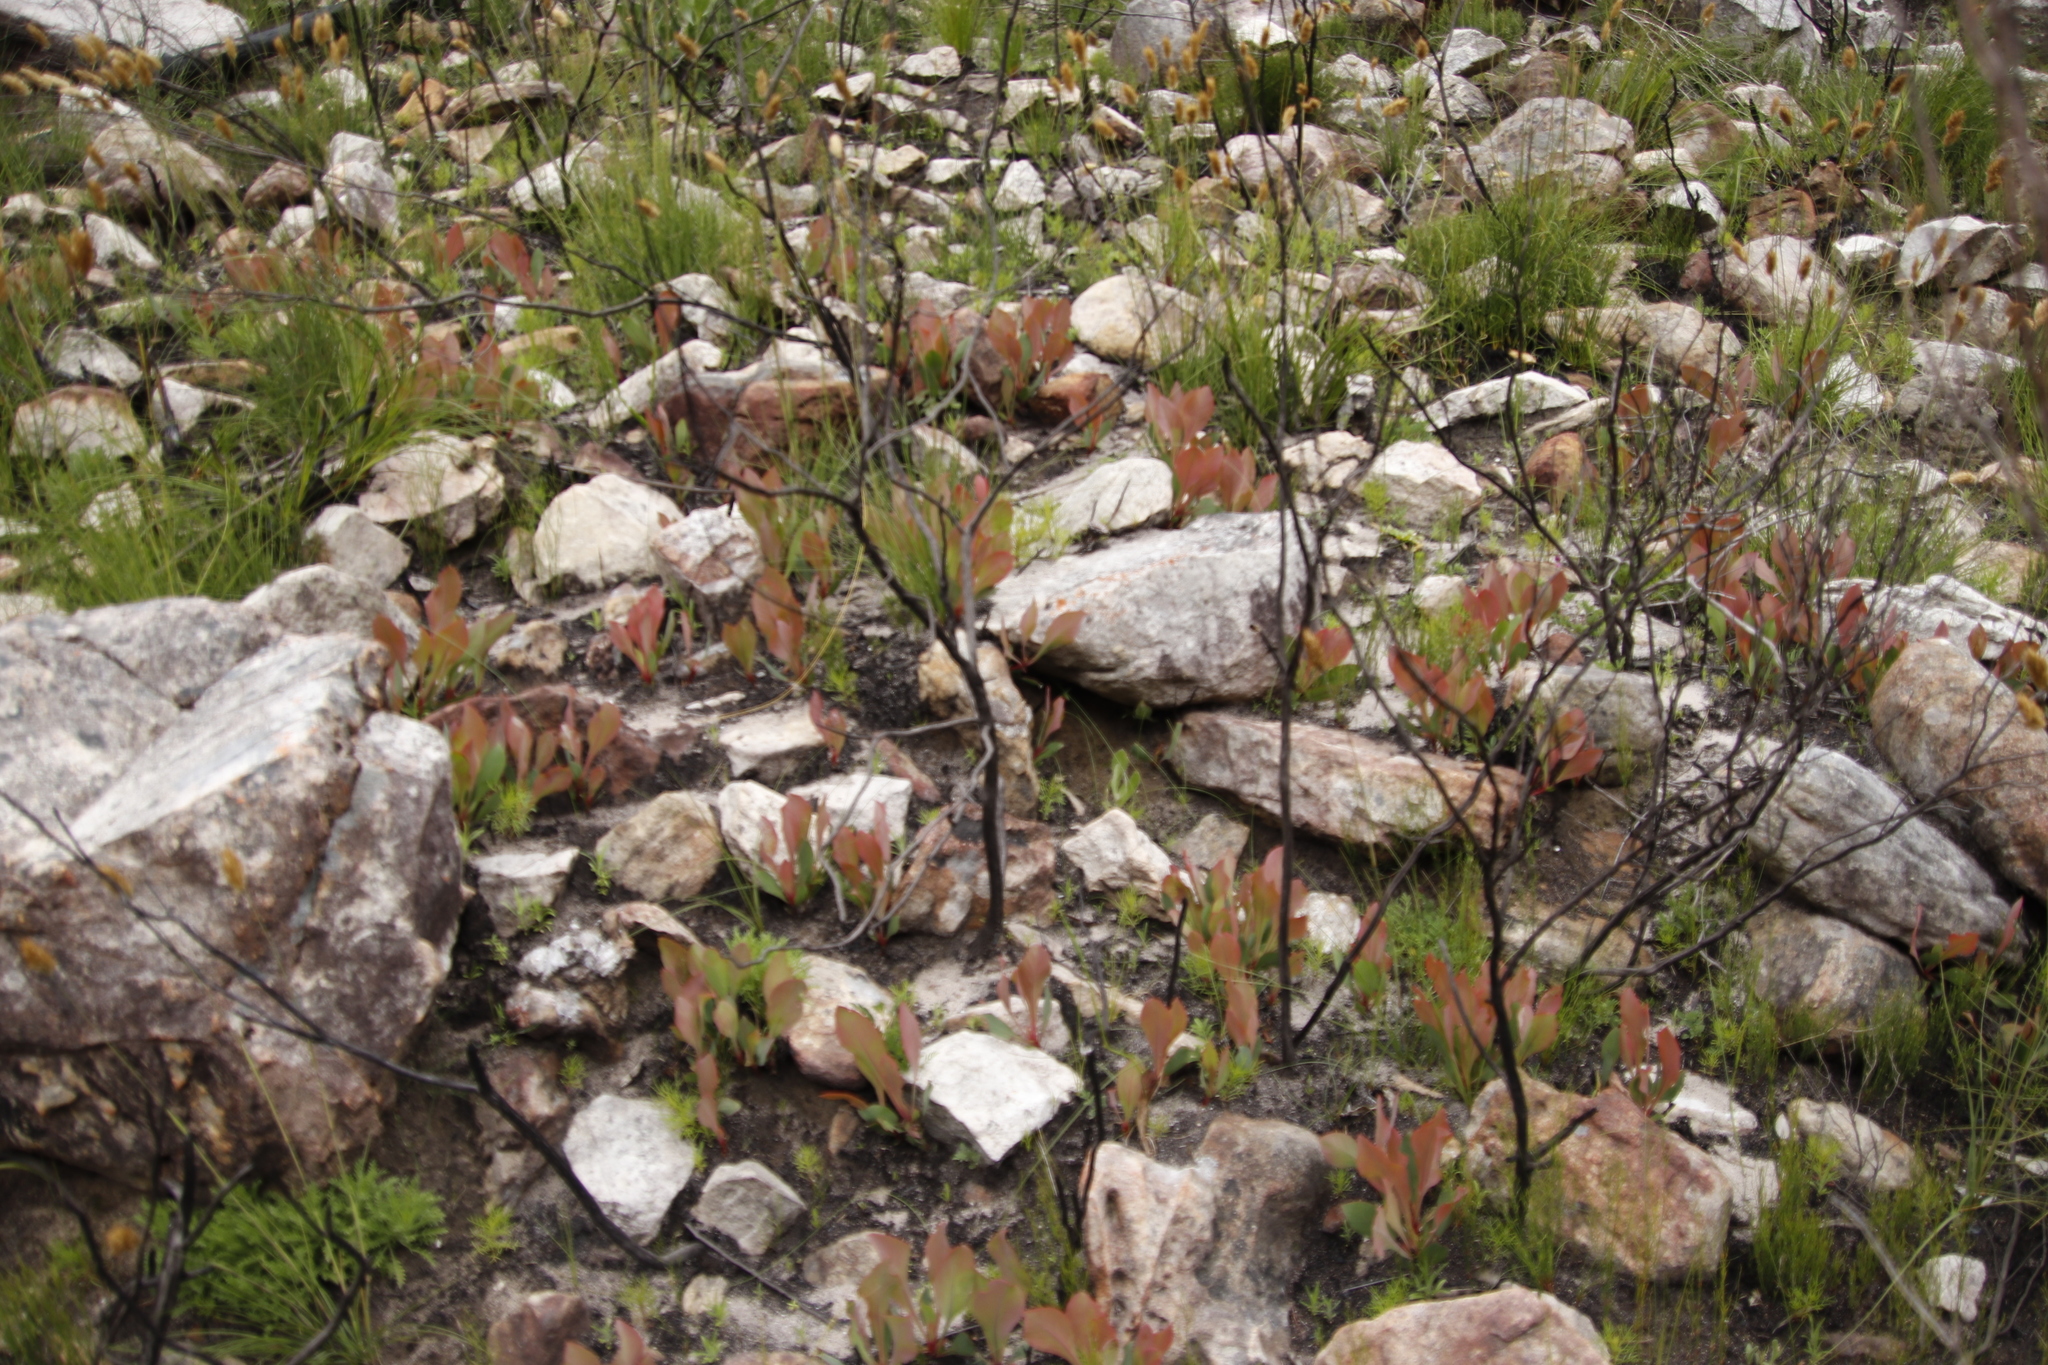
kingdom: Plantae
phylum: Tracheophyta
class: Magnoliopsida
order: Proteales
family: Proteaceae
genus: Protea
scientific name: Protea acaulos
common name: Common ground sugarbush
